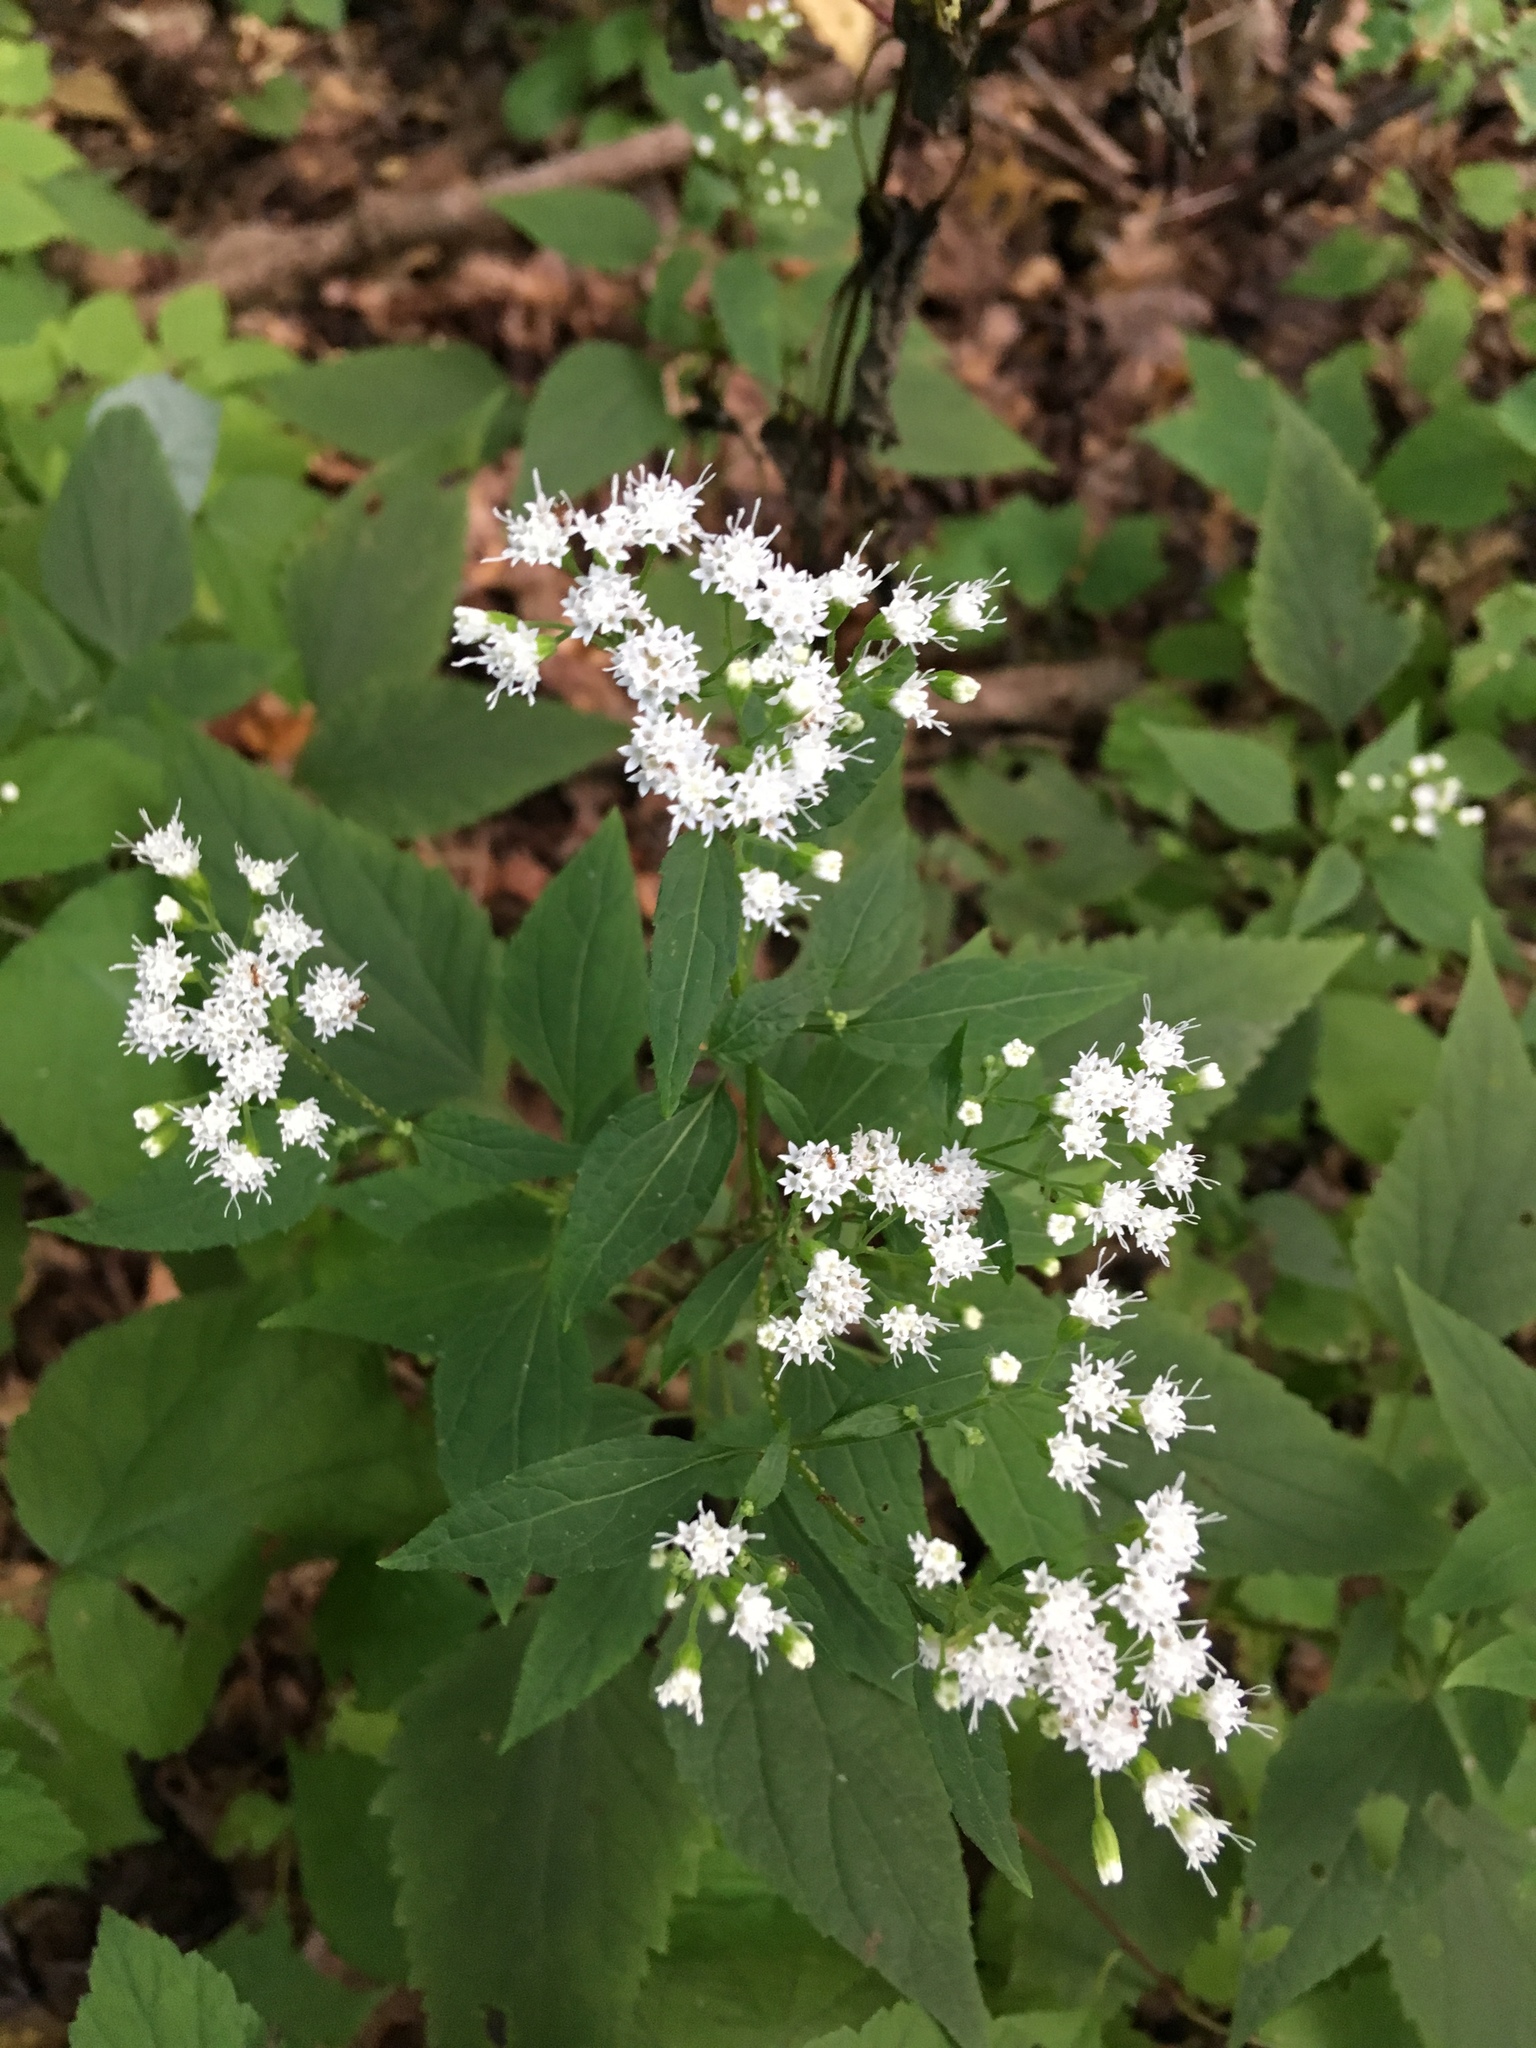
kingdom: Plantae
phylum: Tracheophyta
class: Magnoliopsida
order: Asterales
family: Asteraceae
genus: Ageratina
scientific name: Ageratina altissima
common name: White snakeroot
